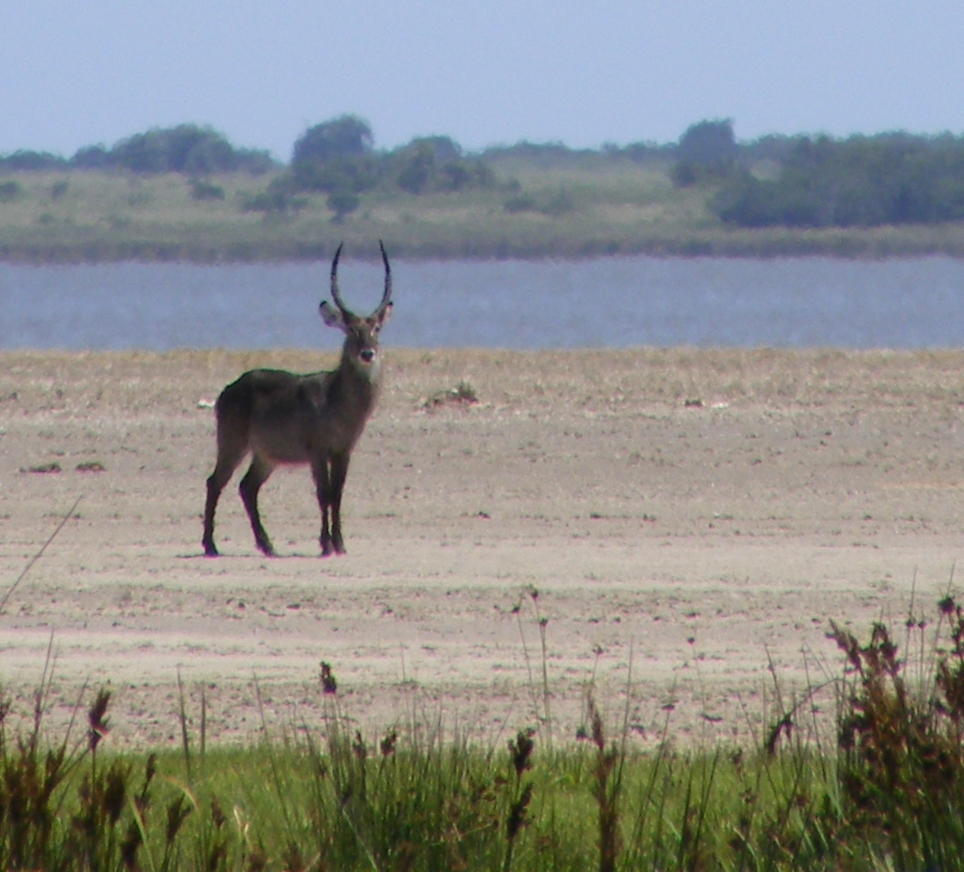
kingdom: Animalia
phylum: Chordata
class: Mammalia
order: Artiodactyla
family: Bovidae
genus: Kobus
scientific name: Kobus ellipsiprymnus
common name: Waterbuck
